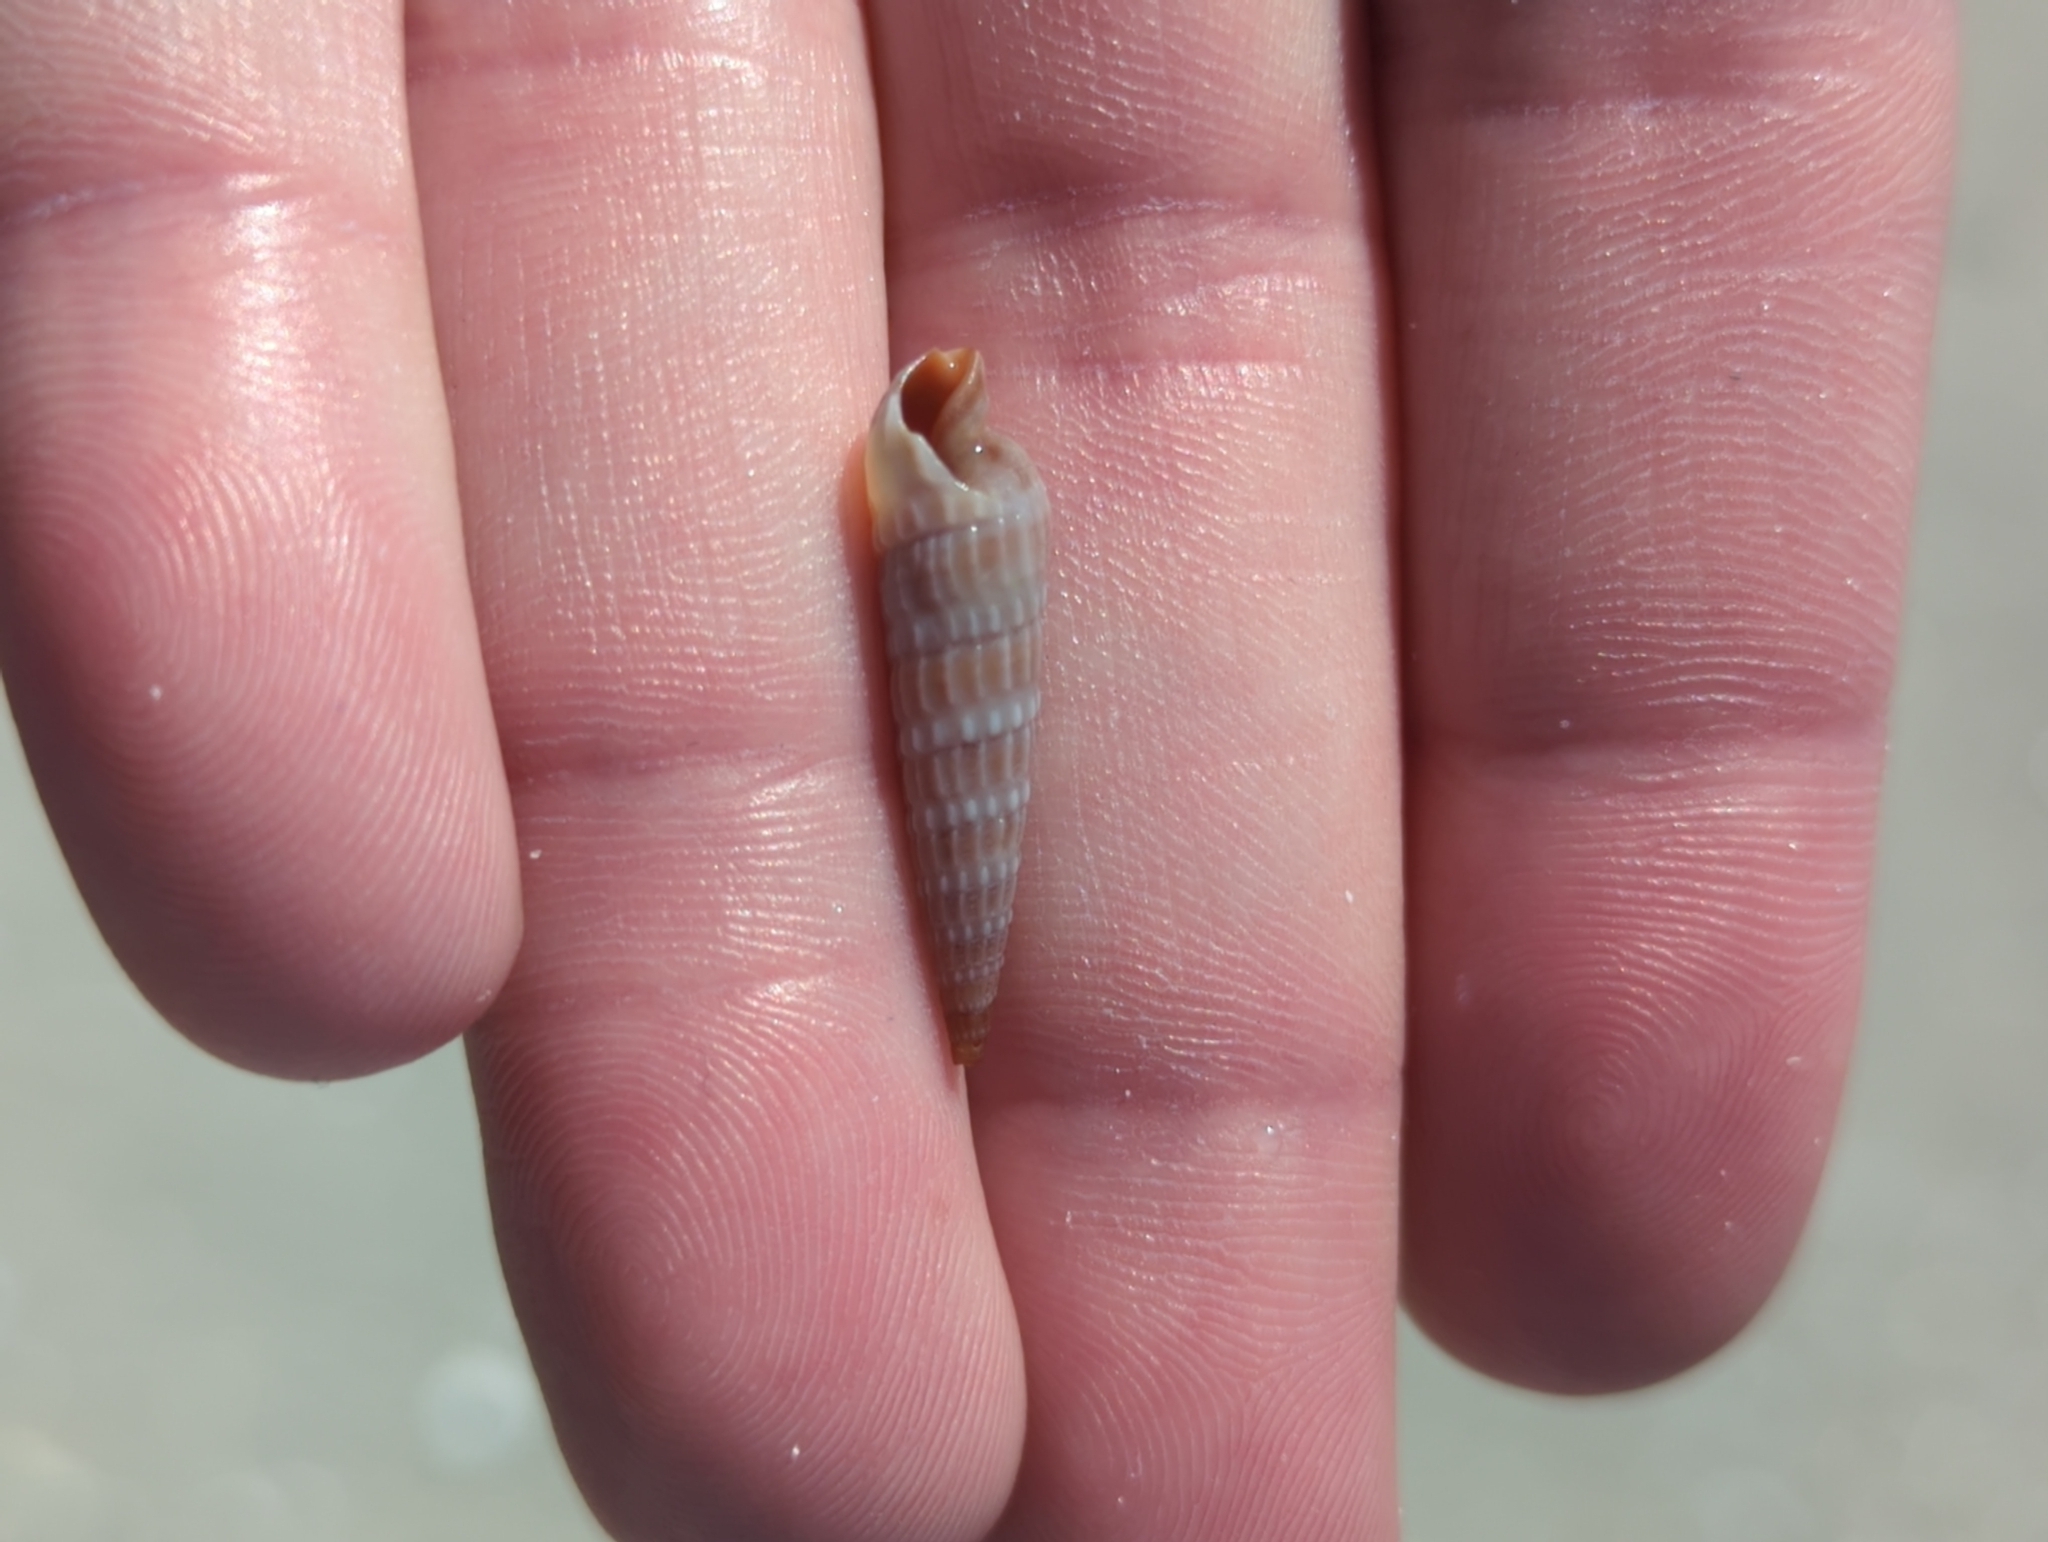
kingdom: Animalia
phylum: Mollusca
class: Gastropoda
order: Neogastropoda
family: Terebridae
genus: Neoterebra
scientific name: Neoterebra dislocata
